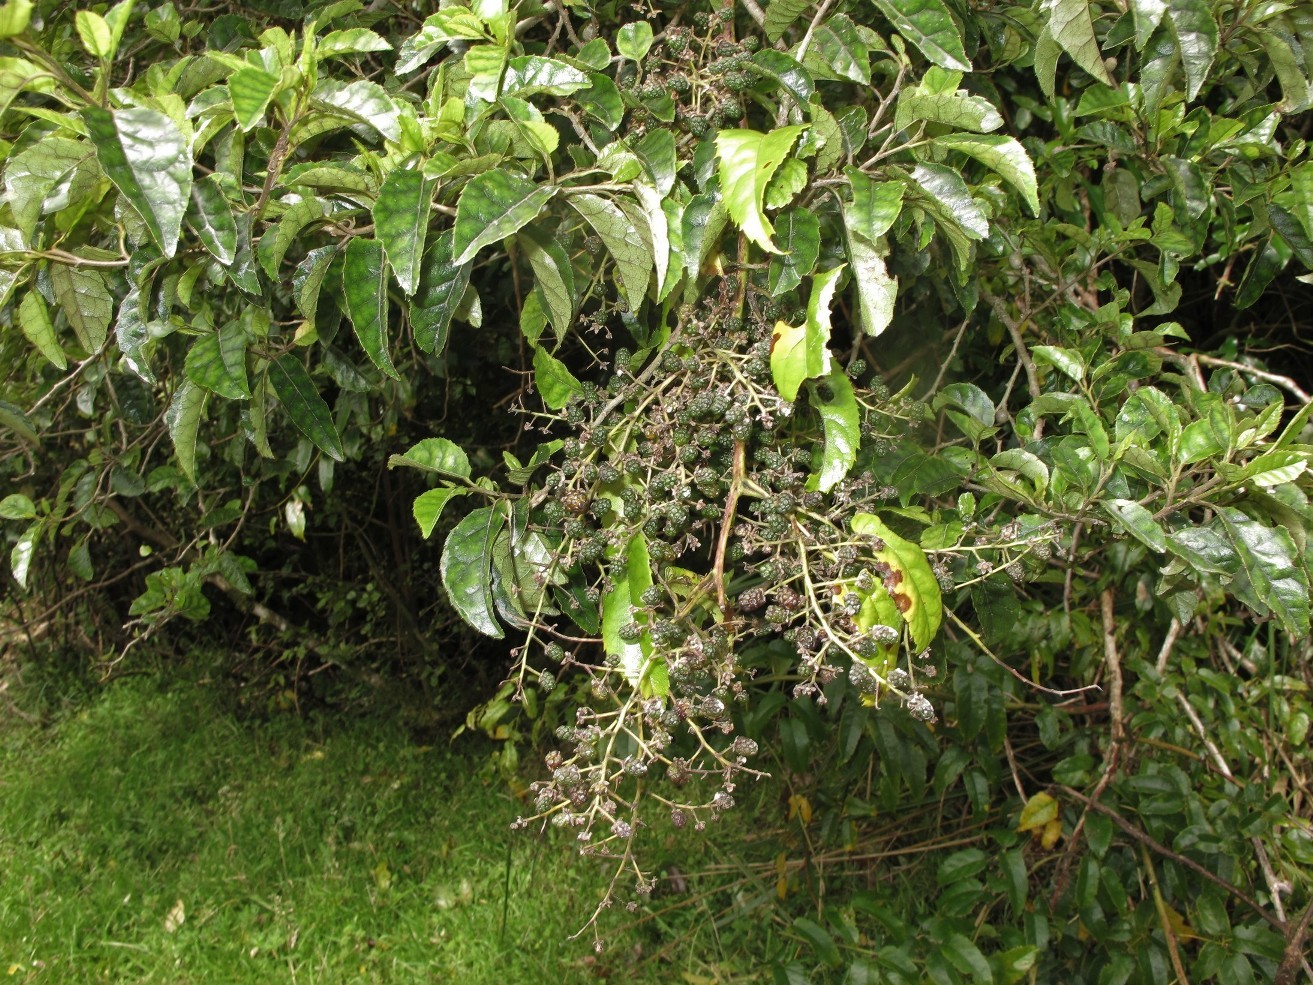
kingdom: Plantae
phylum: Tracheophyta
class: Magnoliopsida
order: Rosales
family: Rosaceae
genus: Rubus
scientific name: Rubus cissoides
